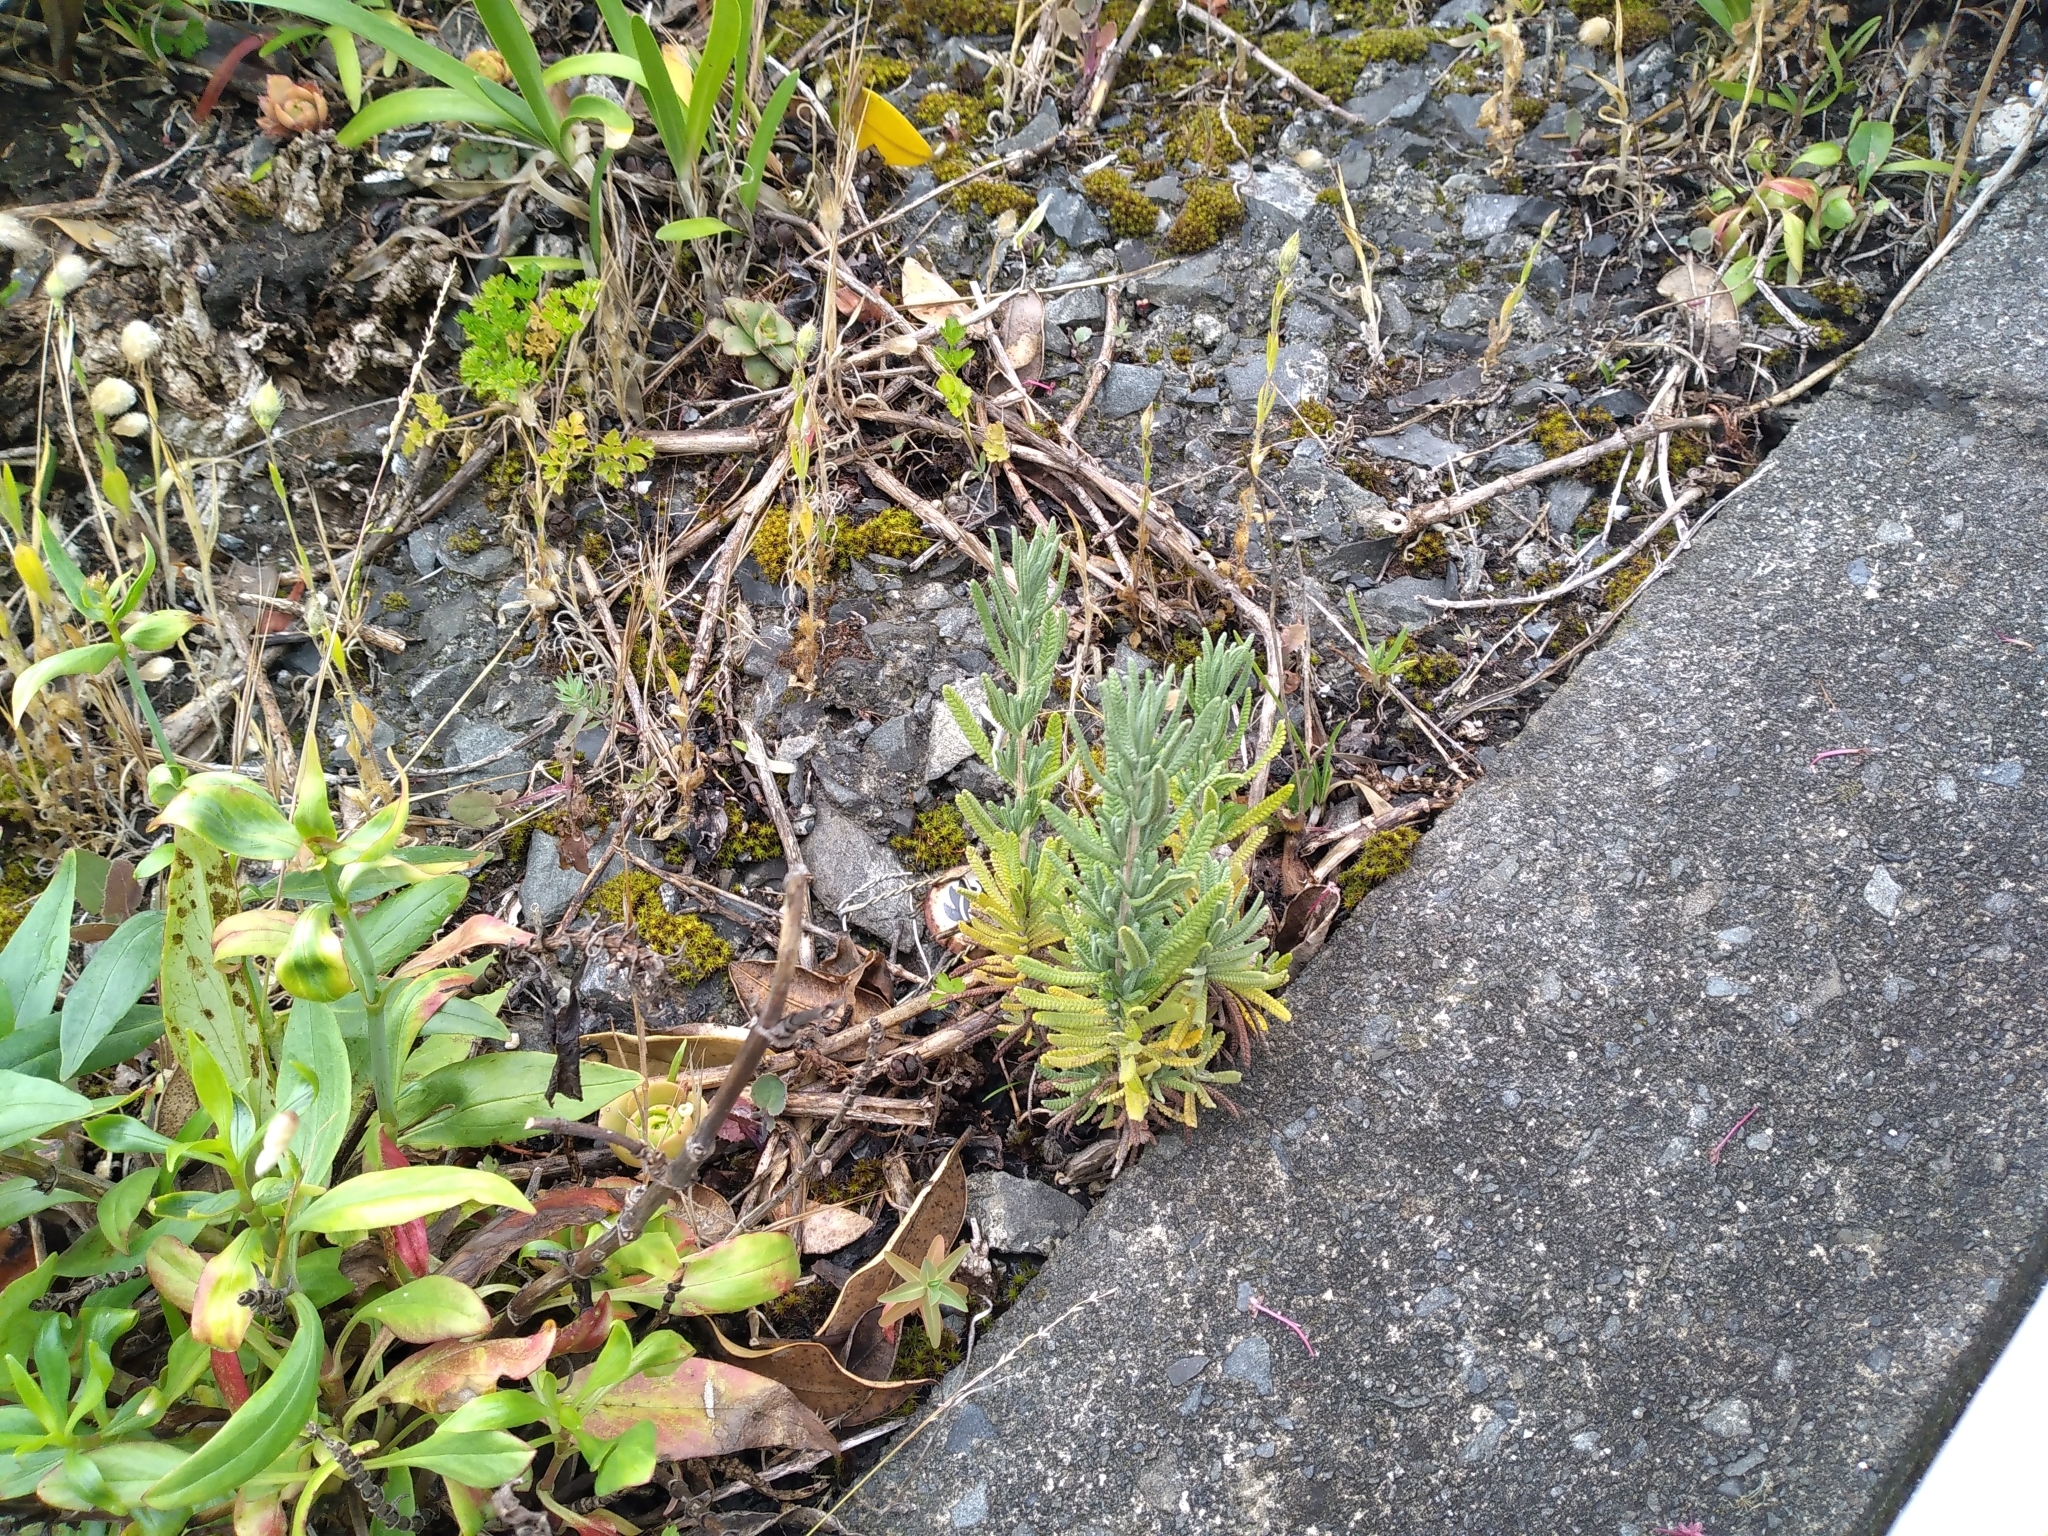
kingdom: Plantae
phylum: Tracheophyta
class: Magnoliopsida
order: Lamiales
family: Lamiaceae
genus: Lavandula
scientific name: Lavandula dentata
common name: French lavender
